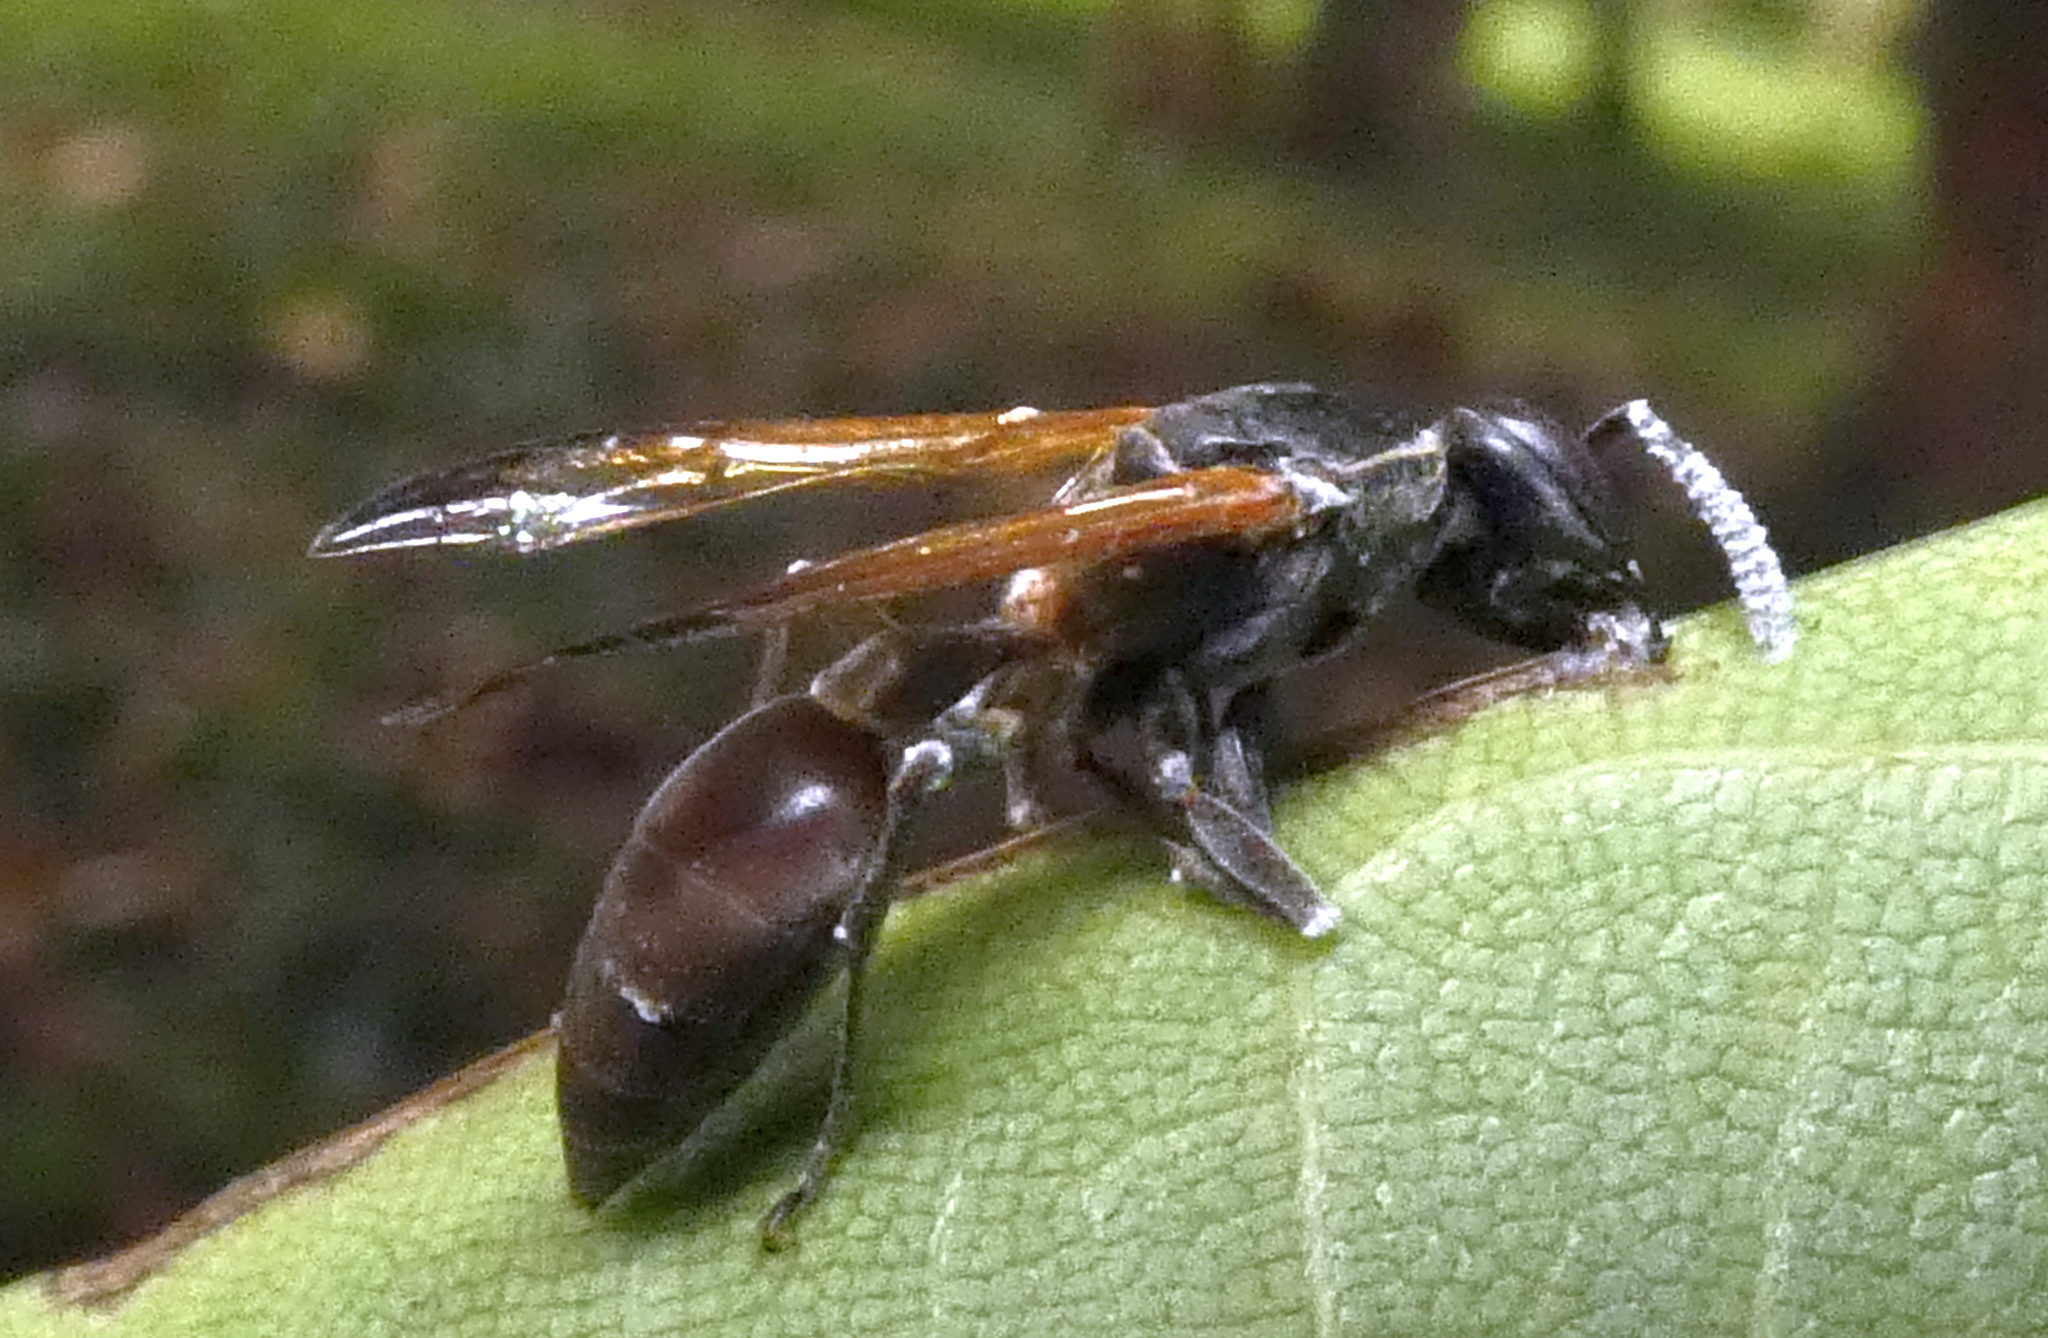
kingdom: Animalia
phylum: Arthropoda
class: Insecta
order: Hymenoptera
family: Eumenidae
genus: Polybia
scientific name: Polybia rejecta
